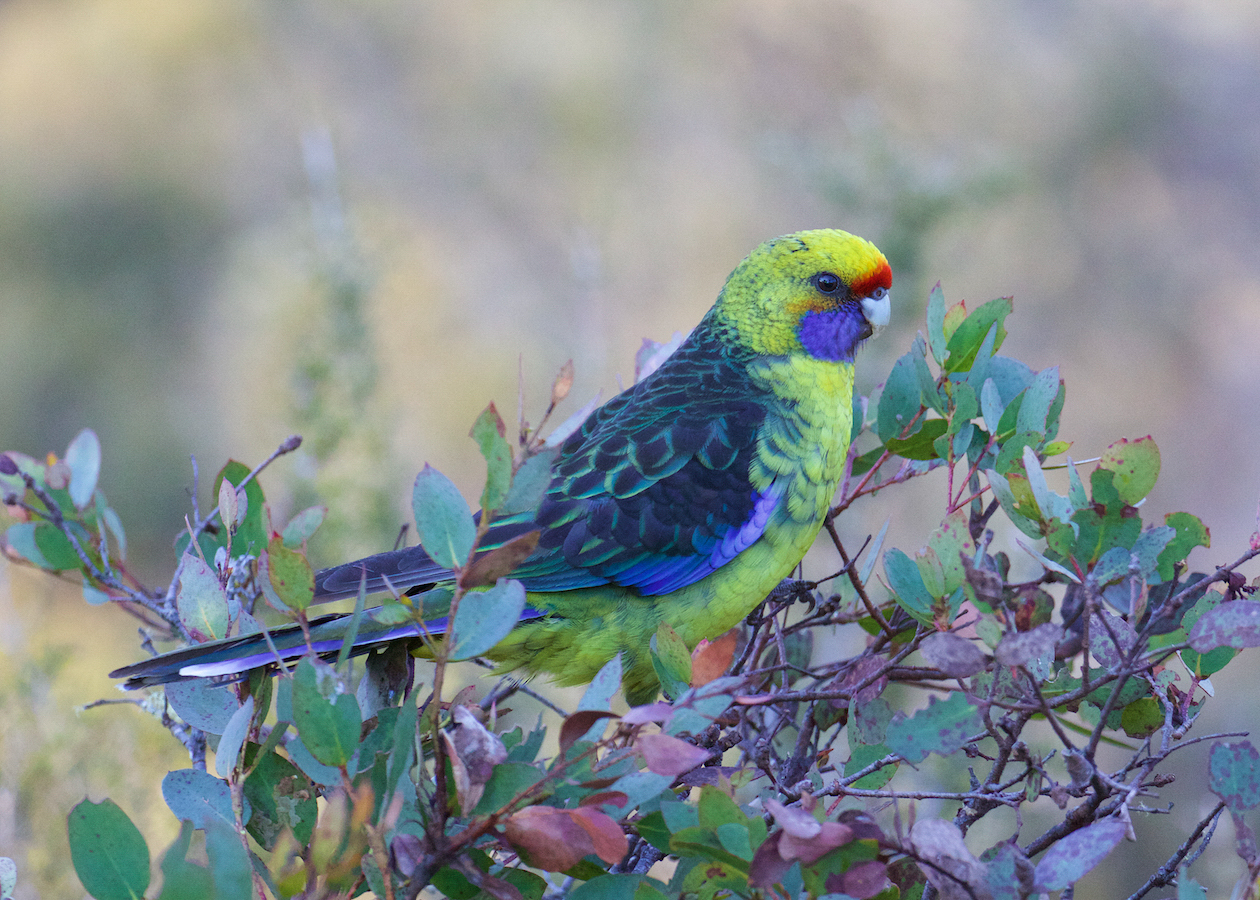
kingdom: Animalia
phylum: Chordata
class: Aves
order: Psittaciformes
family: Psittacidae
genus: Platycercus
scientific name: Platycercus caledonicus
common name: Green rosella
